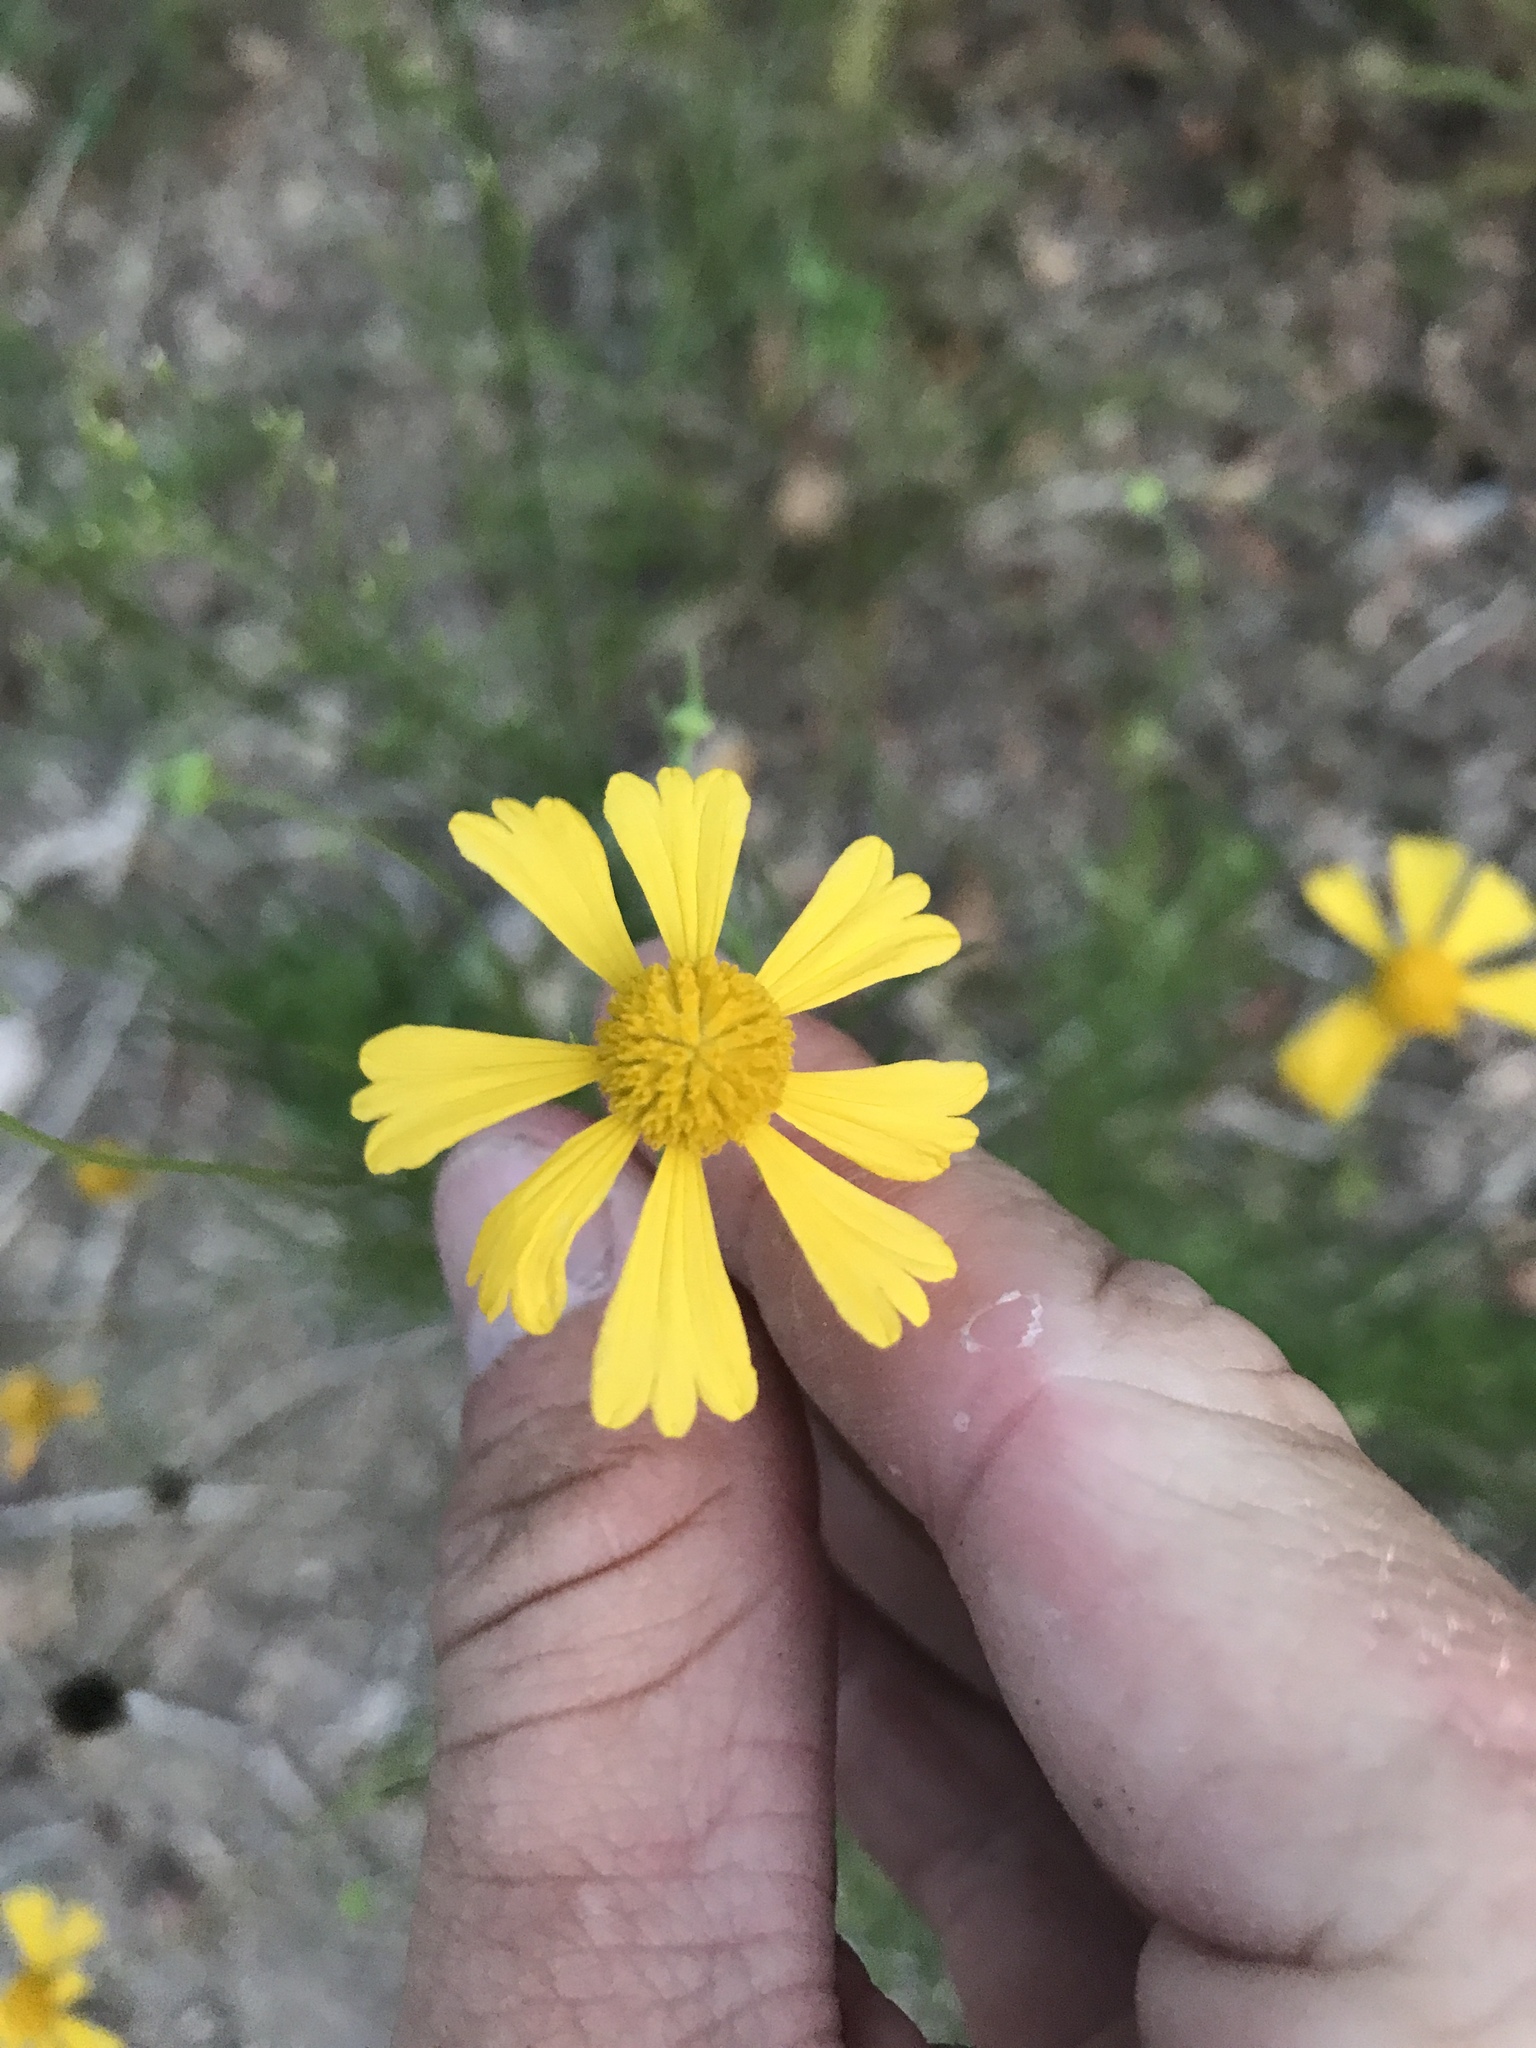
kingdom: Plantae
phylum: Tracheophyta
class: Magnoliopsida
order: Asterales
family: Asteraceae
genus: Helenium
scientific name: Helenium amarum
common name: Bitter sneezeweed
